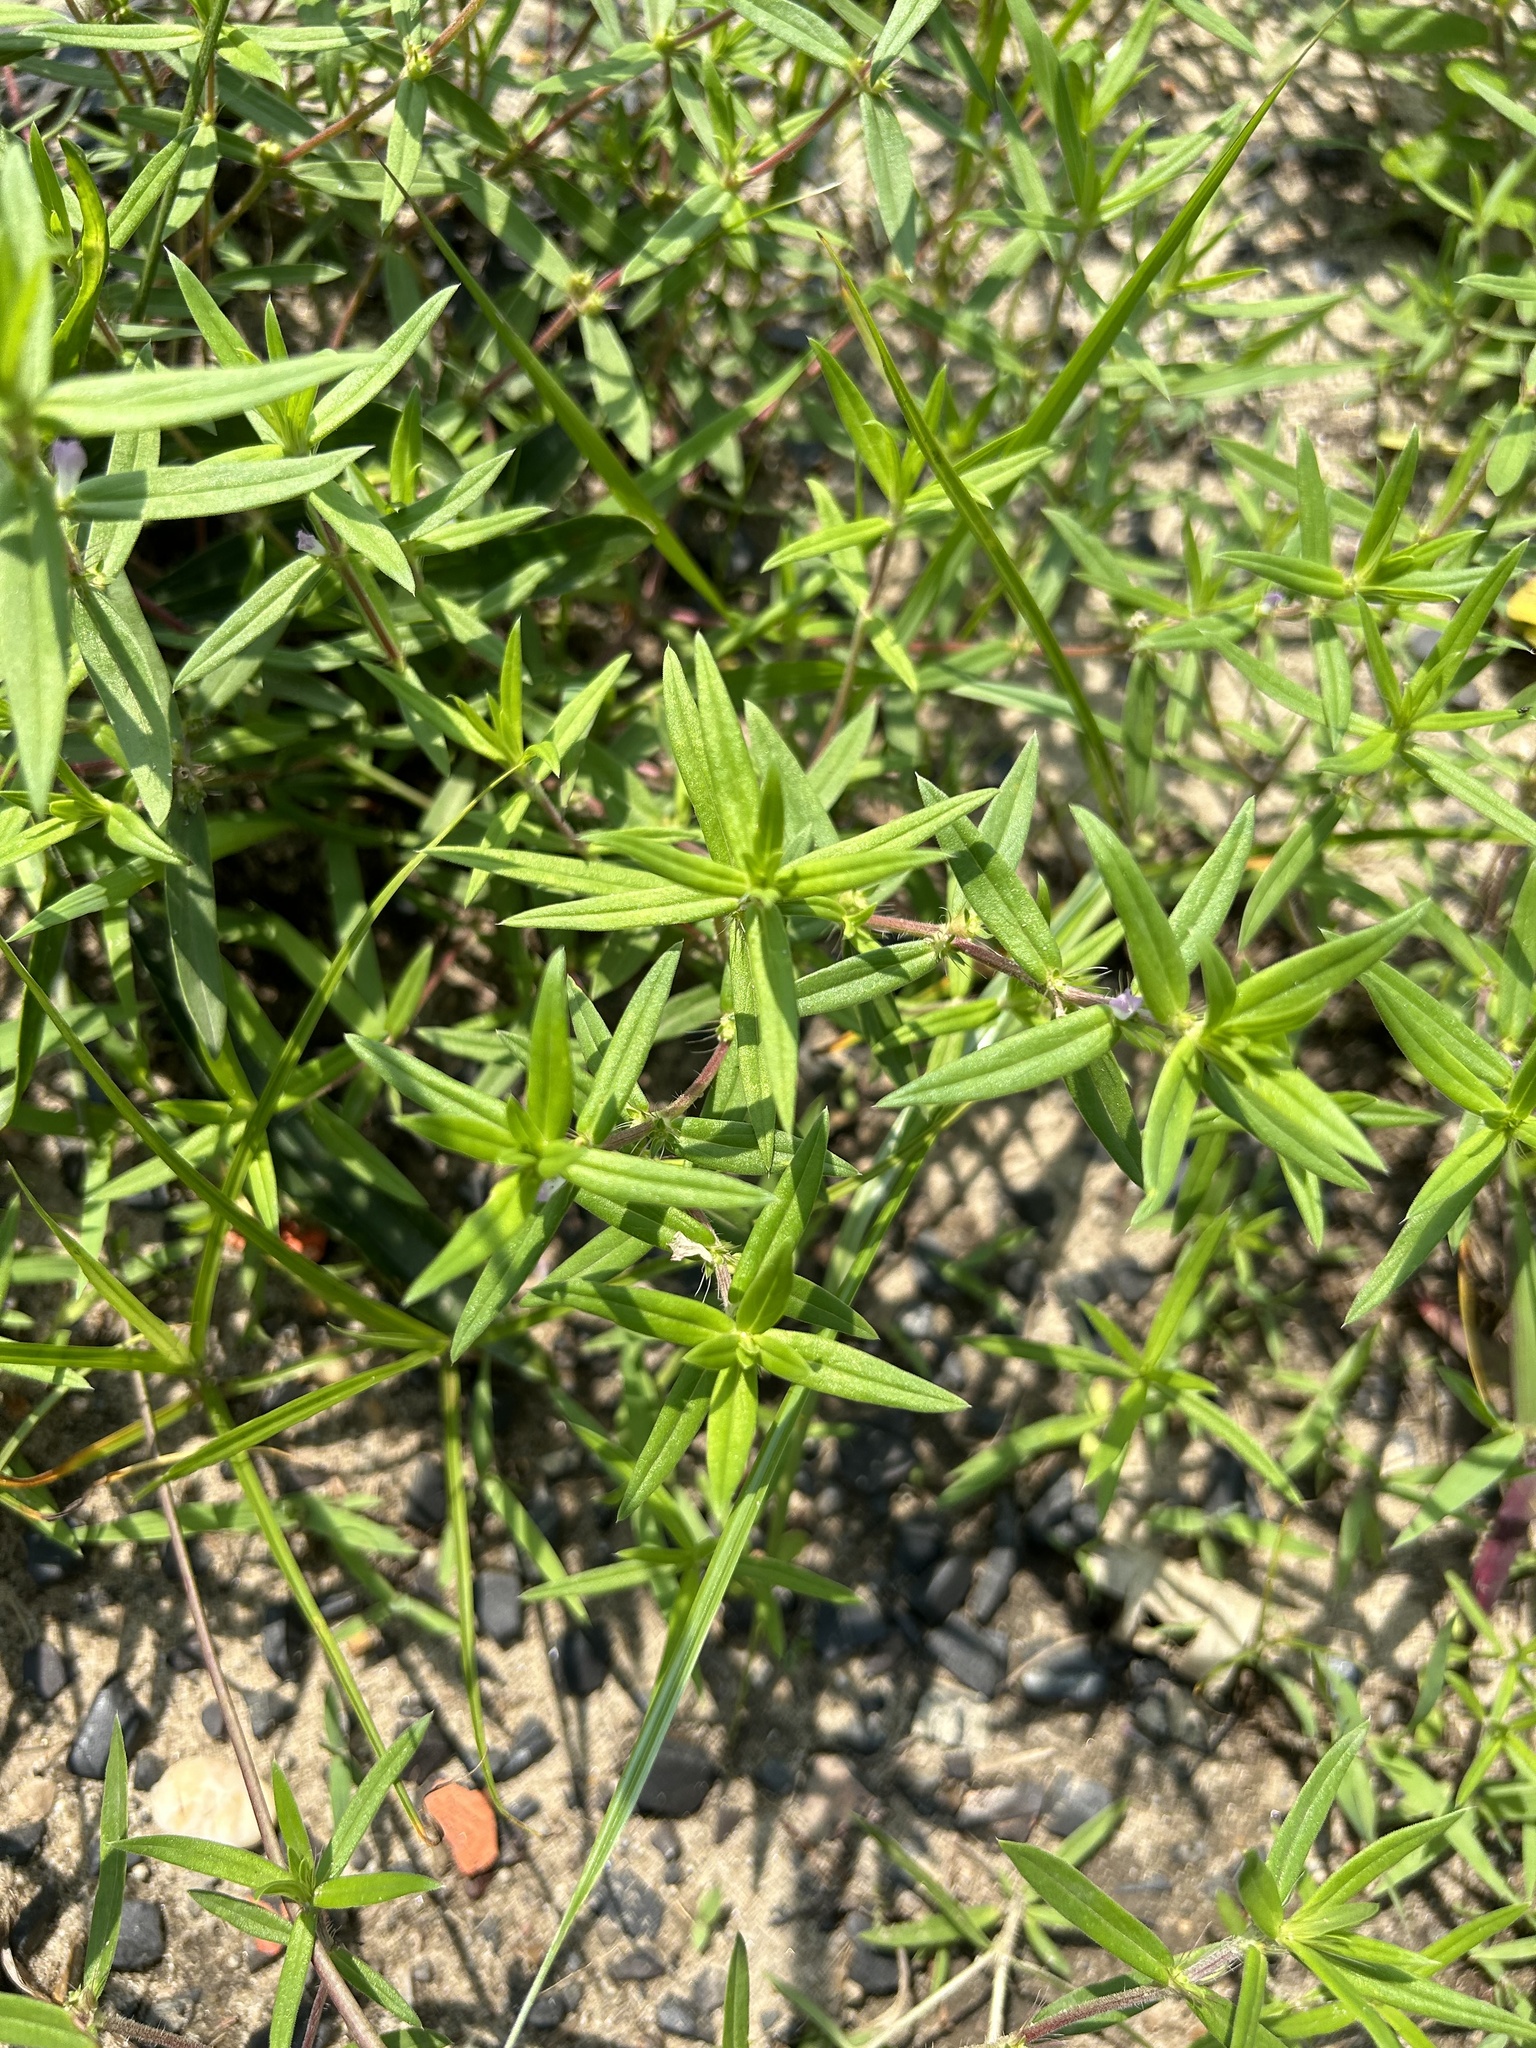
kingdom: Plantae
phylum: Tracheophyta
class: Magnoliopsida
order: Gentianales
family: Rubiaceae
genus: Hexasepalum
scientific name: Hexasepalum teres
